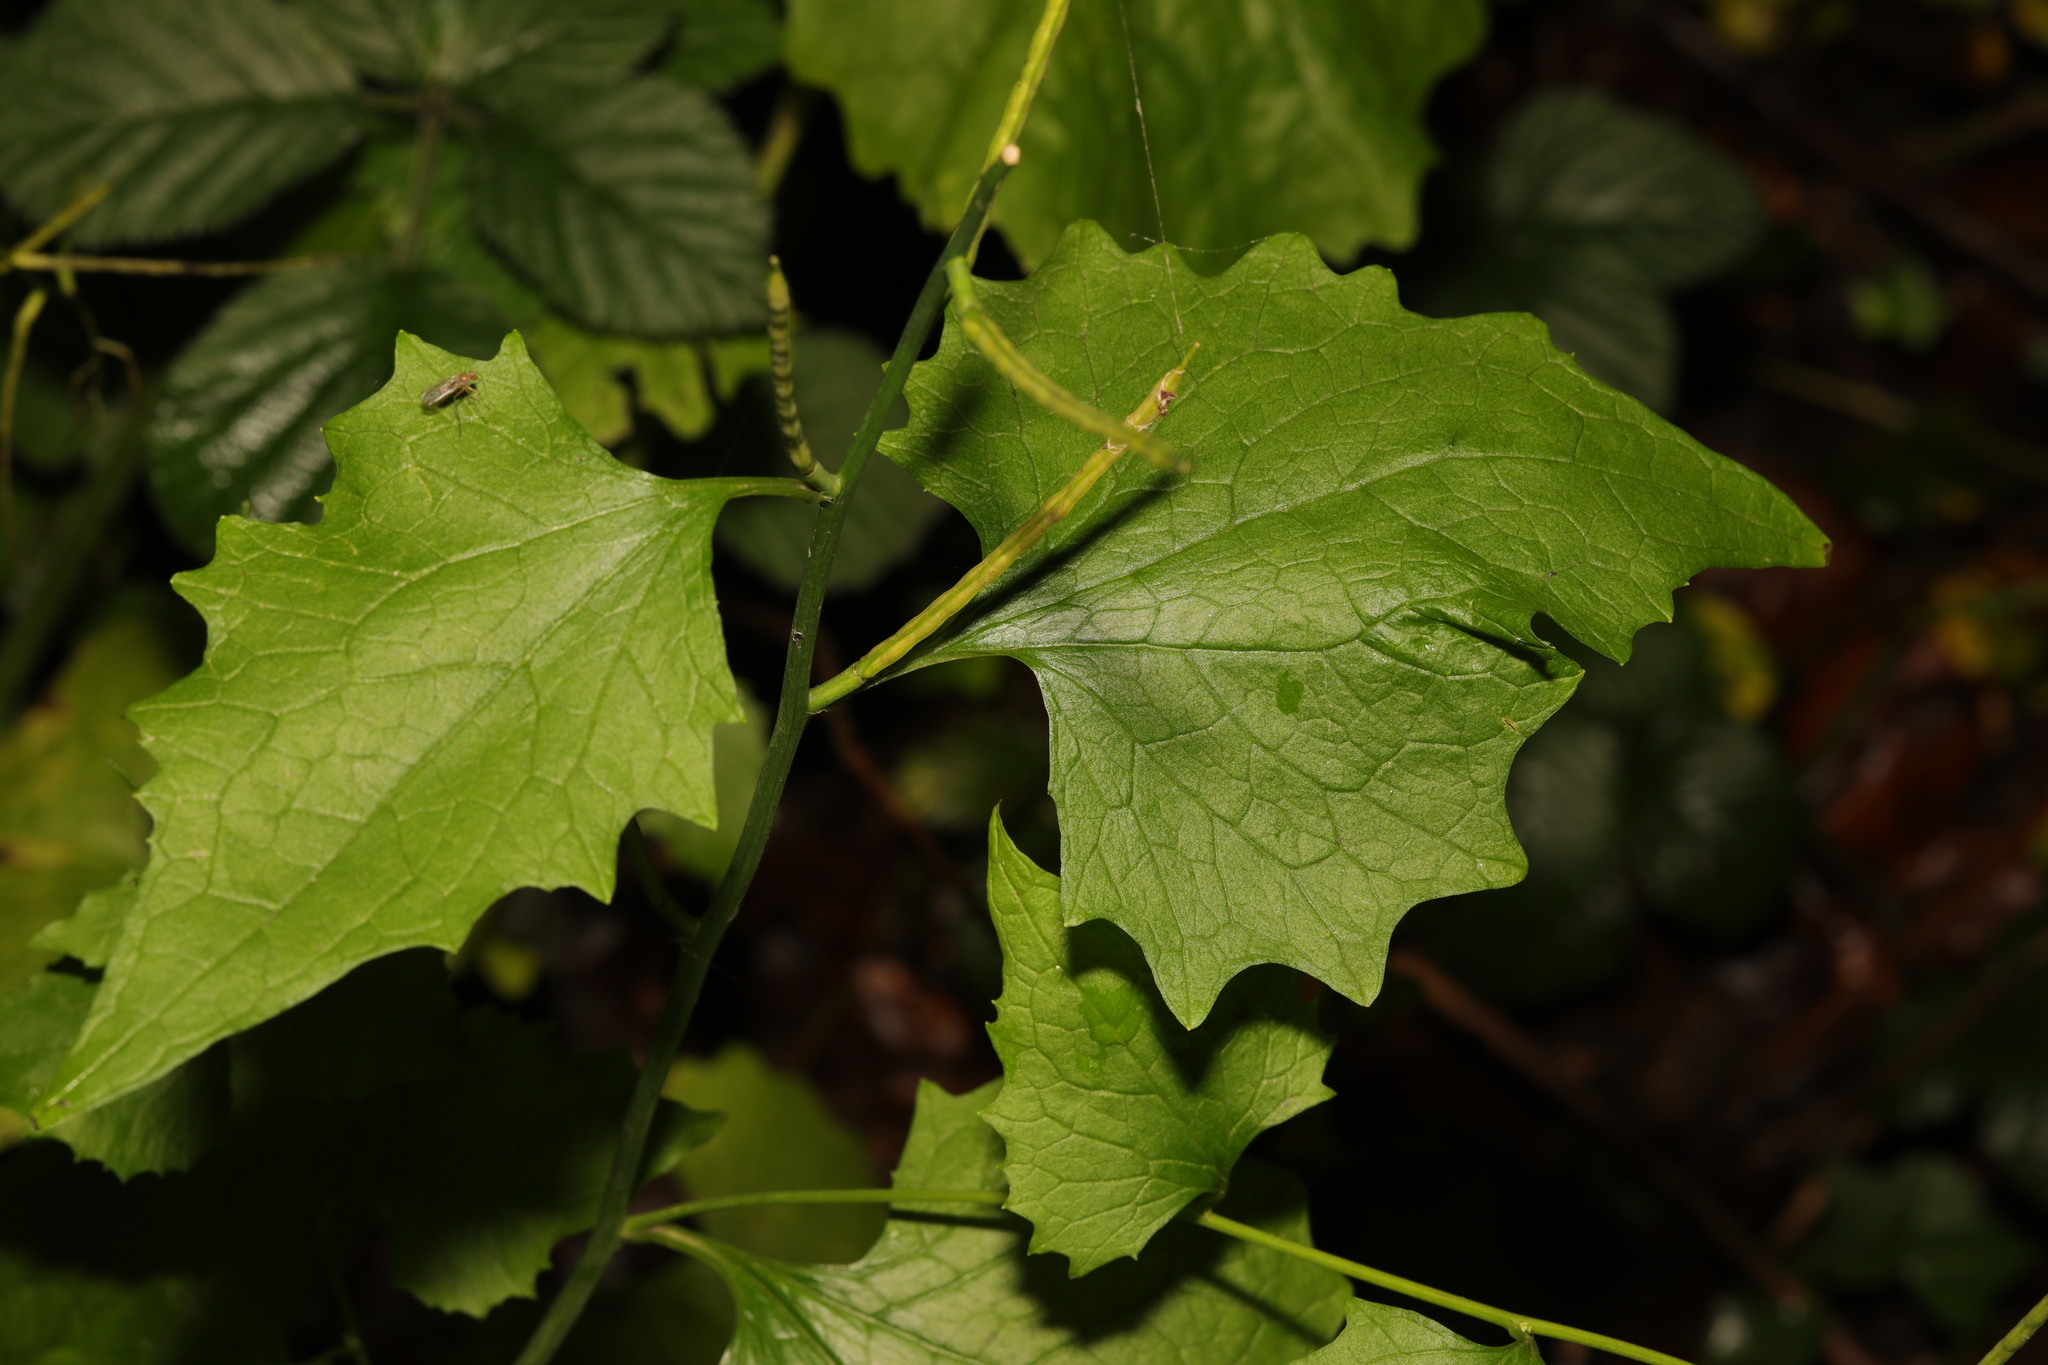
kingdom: Plantae
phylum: Tracheophyta
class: Magnoliopsida
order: Brassicales
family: Brassicaceae
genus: Alliaria
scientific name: Alliaria petiolata
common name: Garlic mustard
